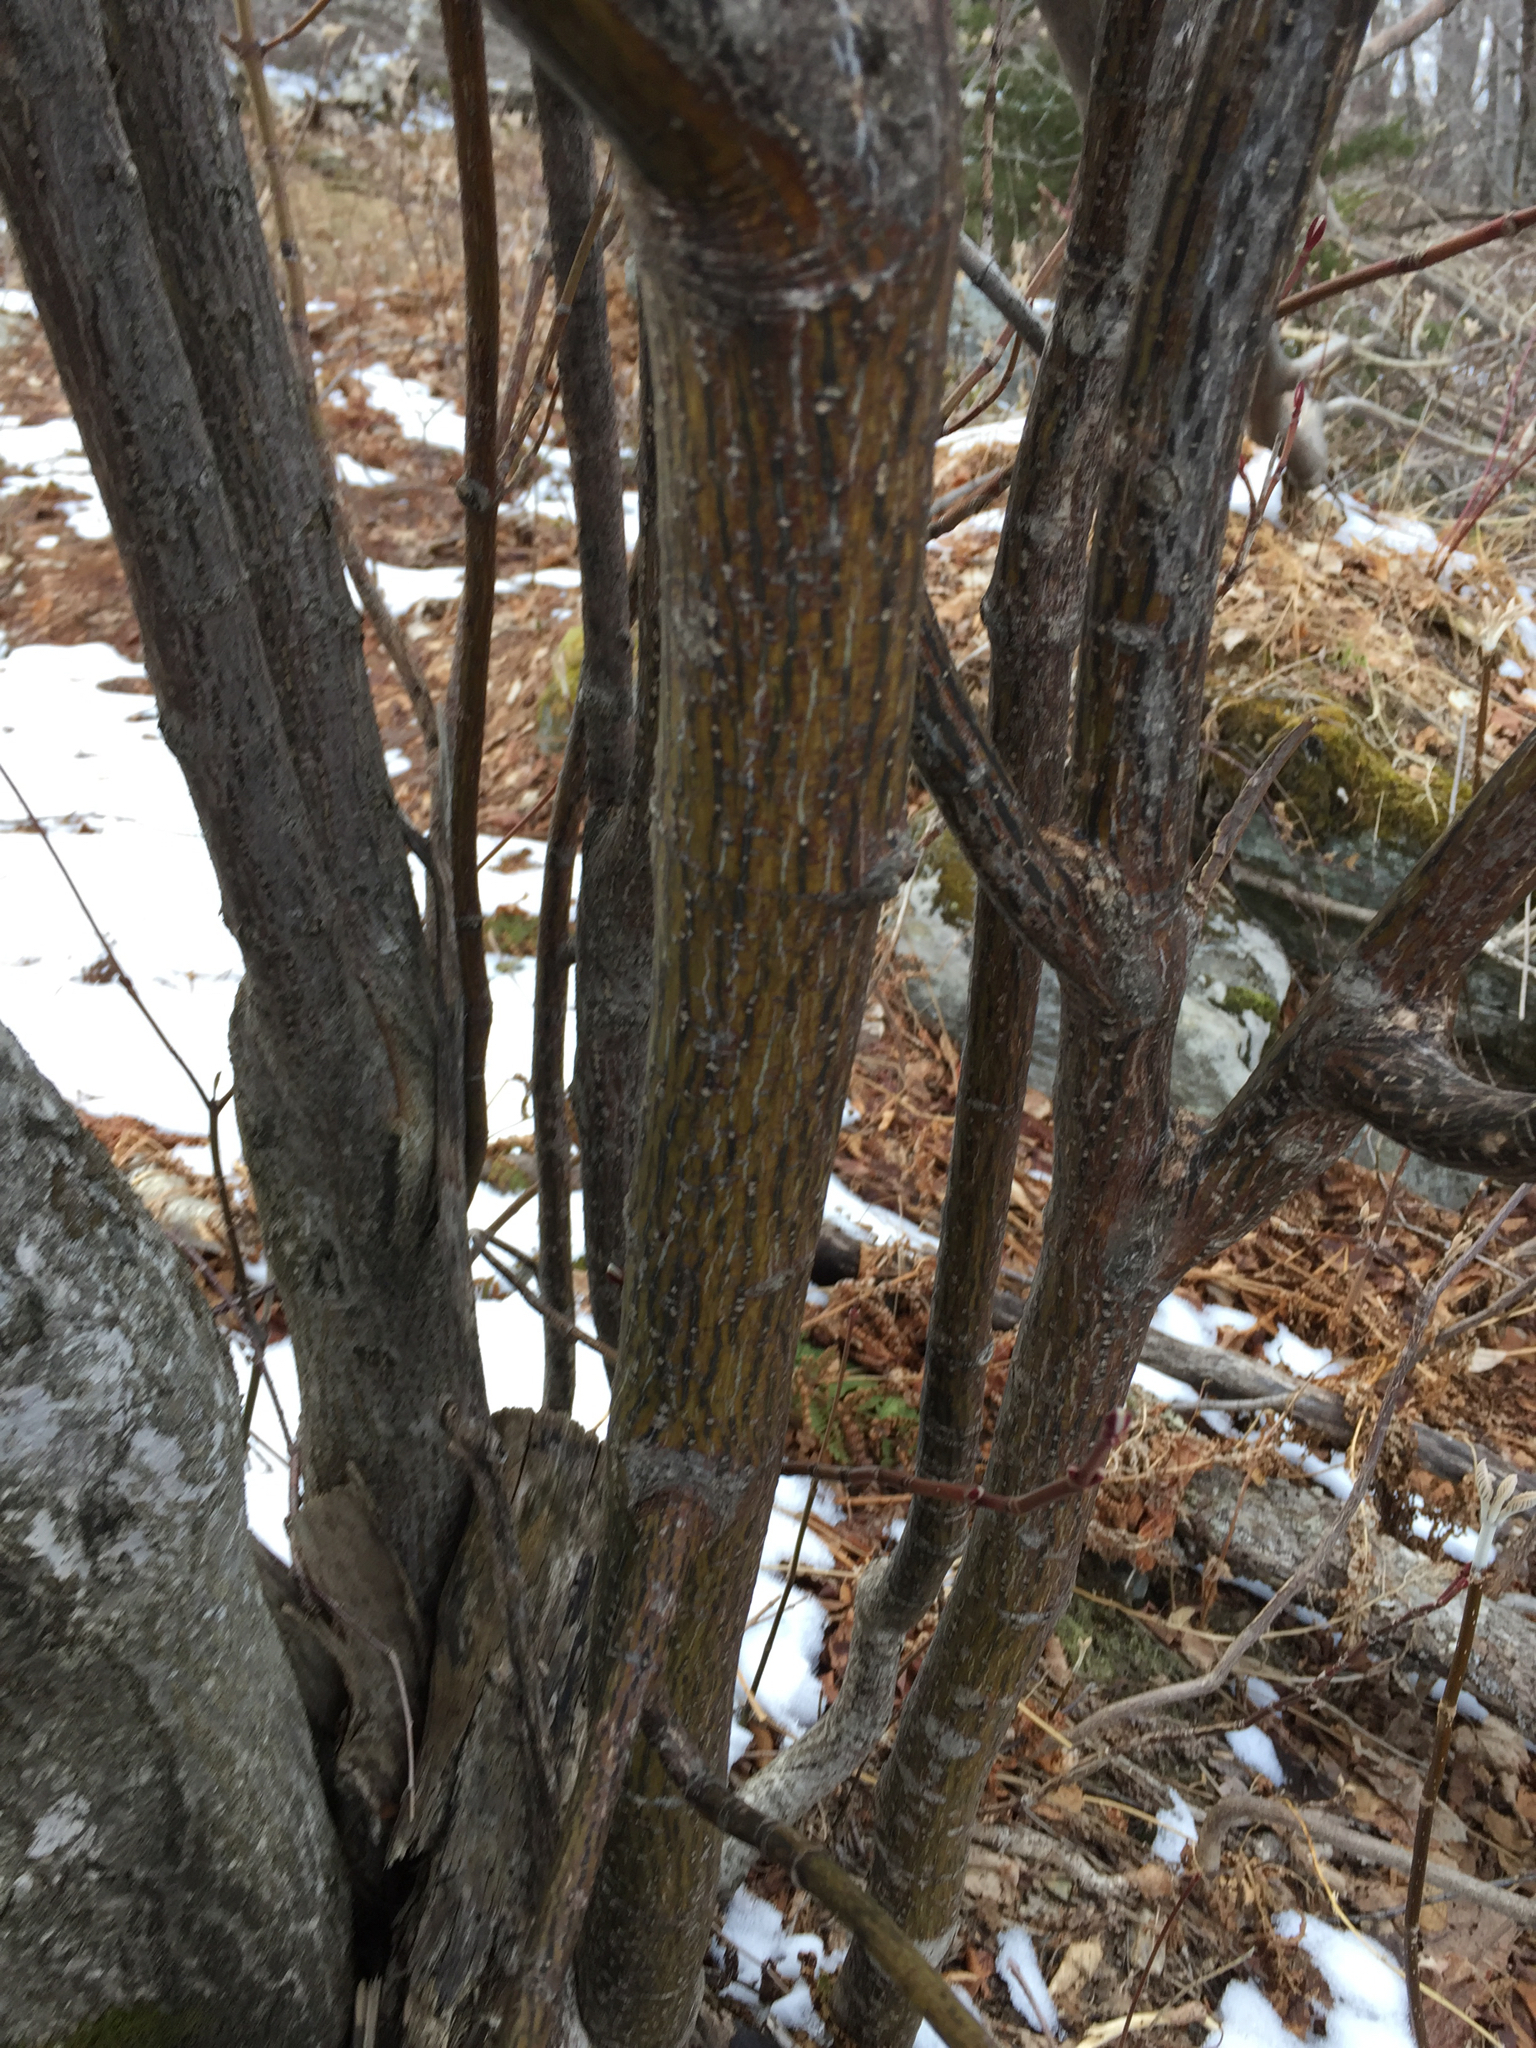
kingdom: Plantae
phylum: Tracheophyta
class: Magnoliopsida
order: Sapindales
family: Sapindaceae
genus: Acer
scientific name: Acer pensylvanicum
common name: Moosewood
